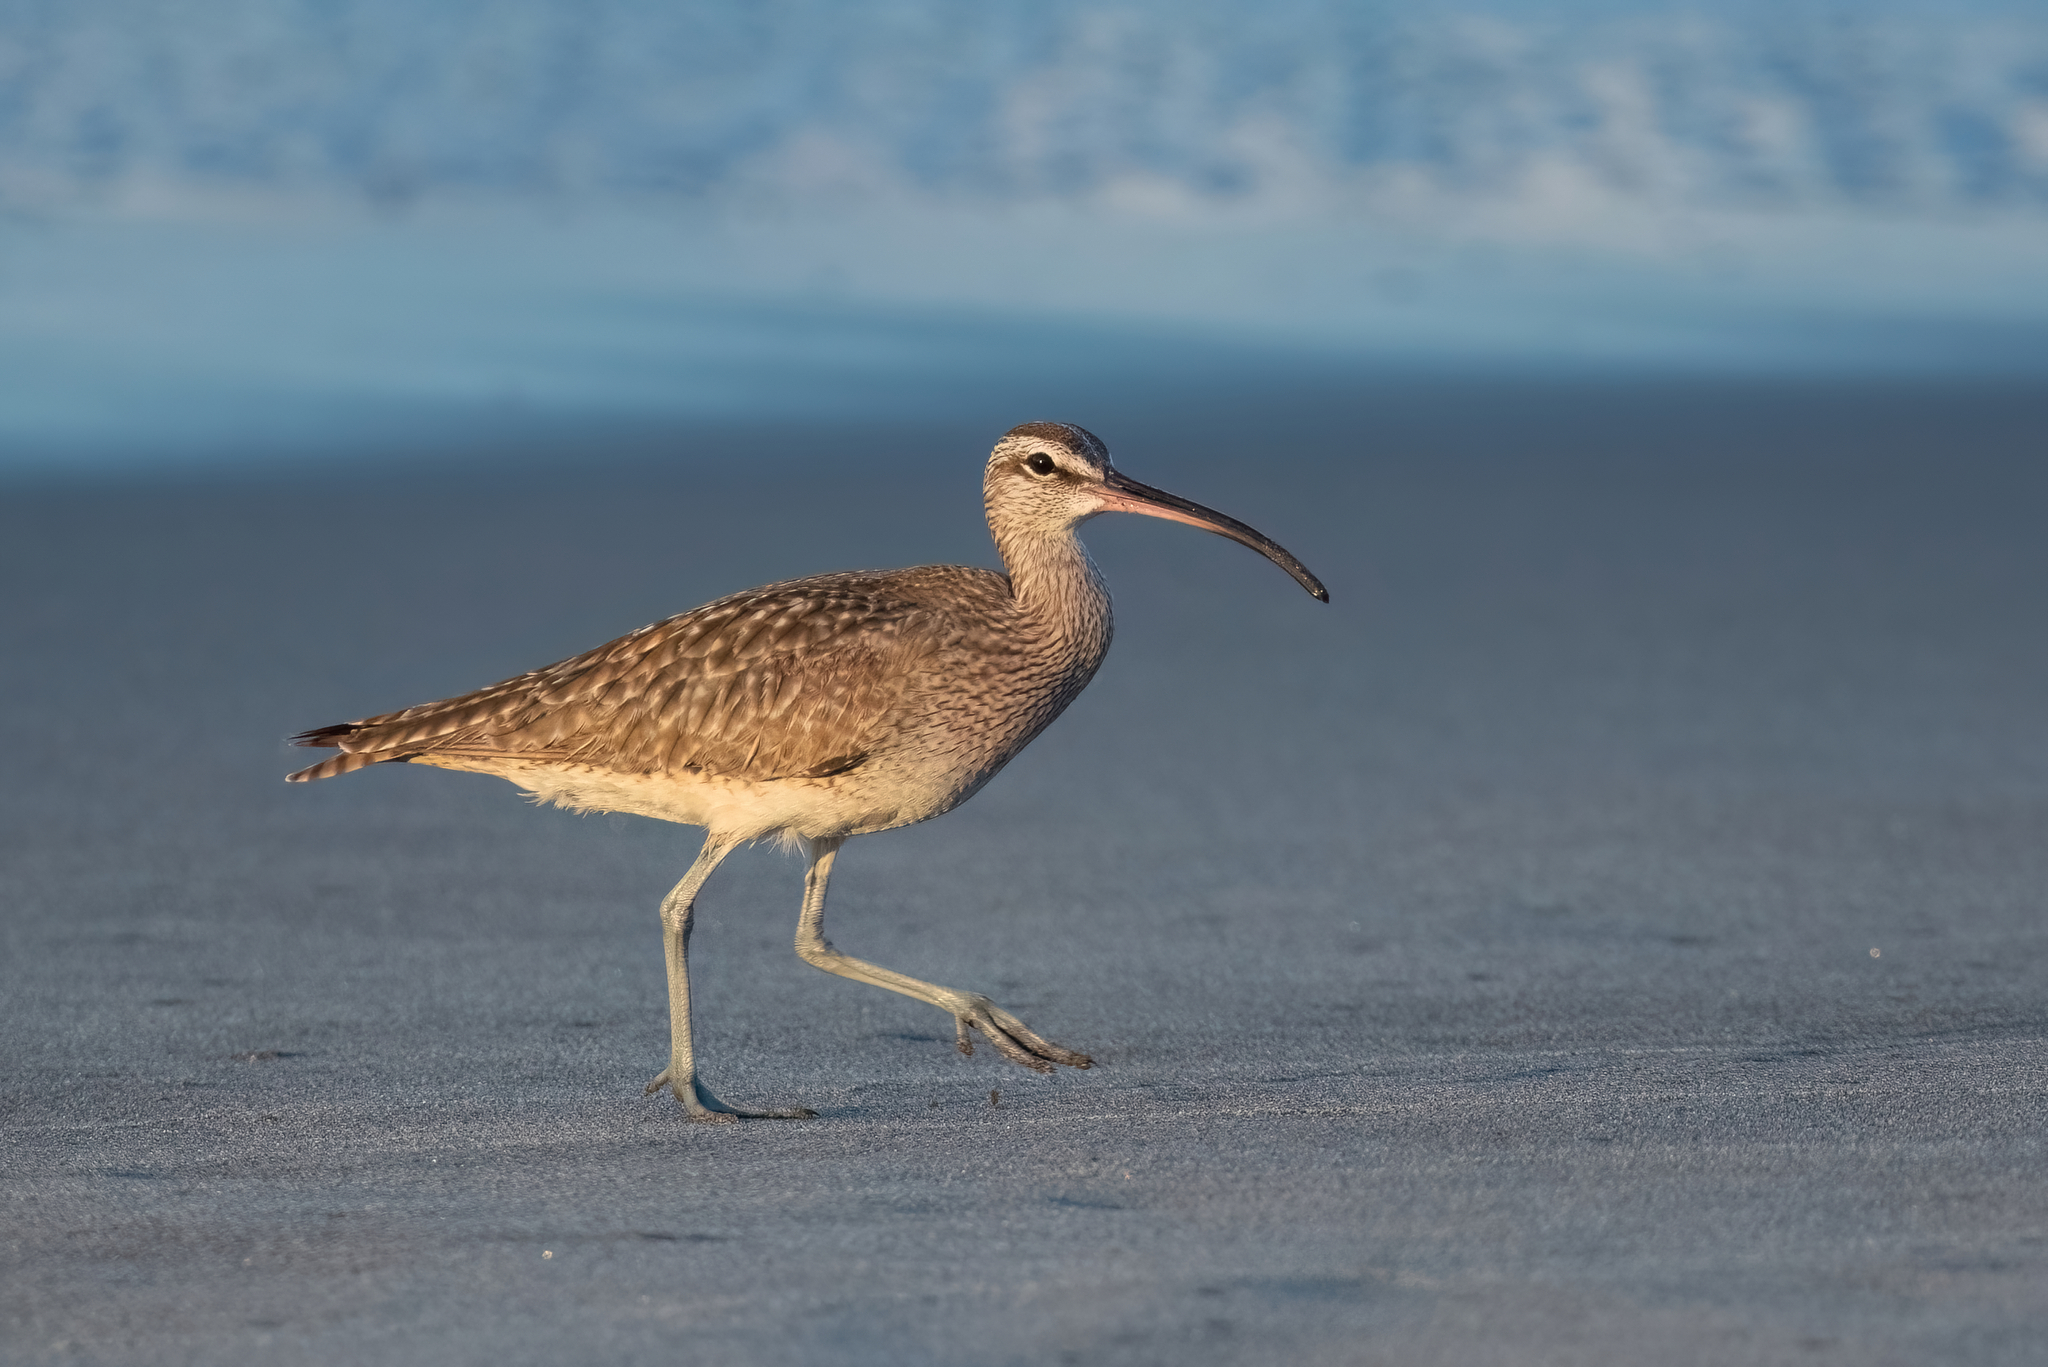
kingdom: Animalia
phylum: Chordata
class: Aves
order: Charadriiformes
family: Scolopacidae
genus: Numenius
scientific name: Numenius phaeopus
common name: Whimbrel
